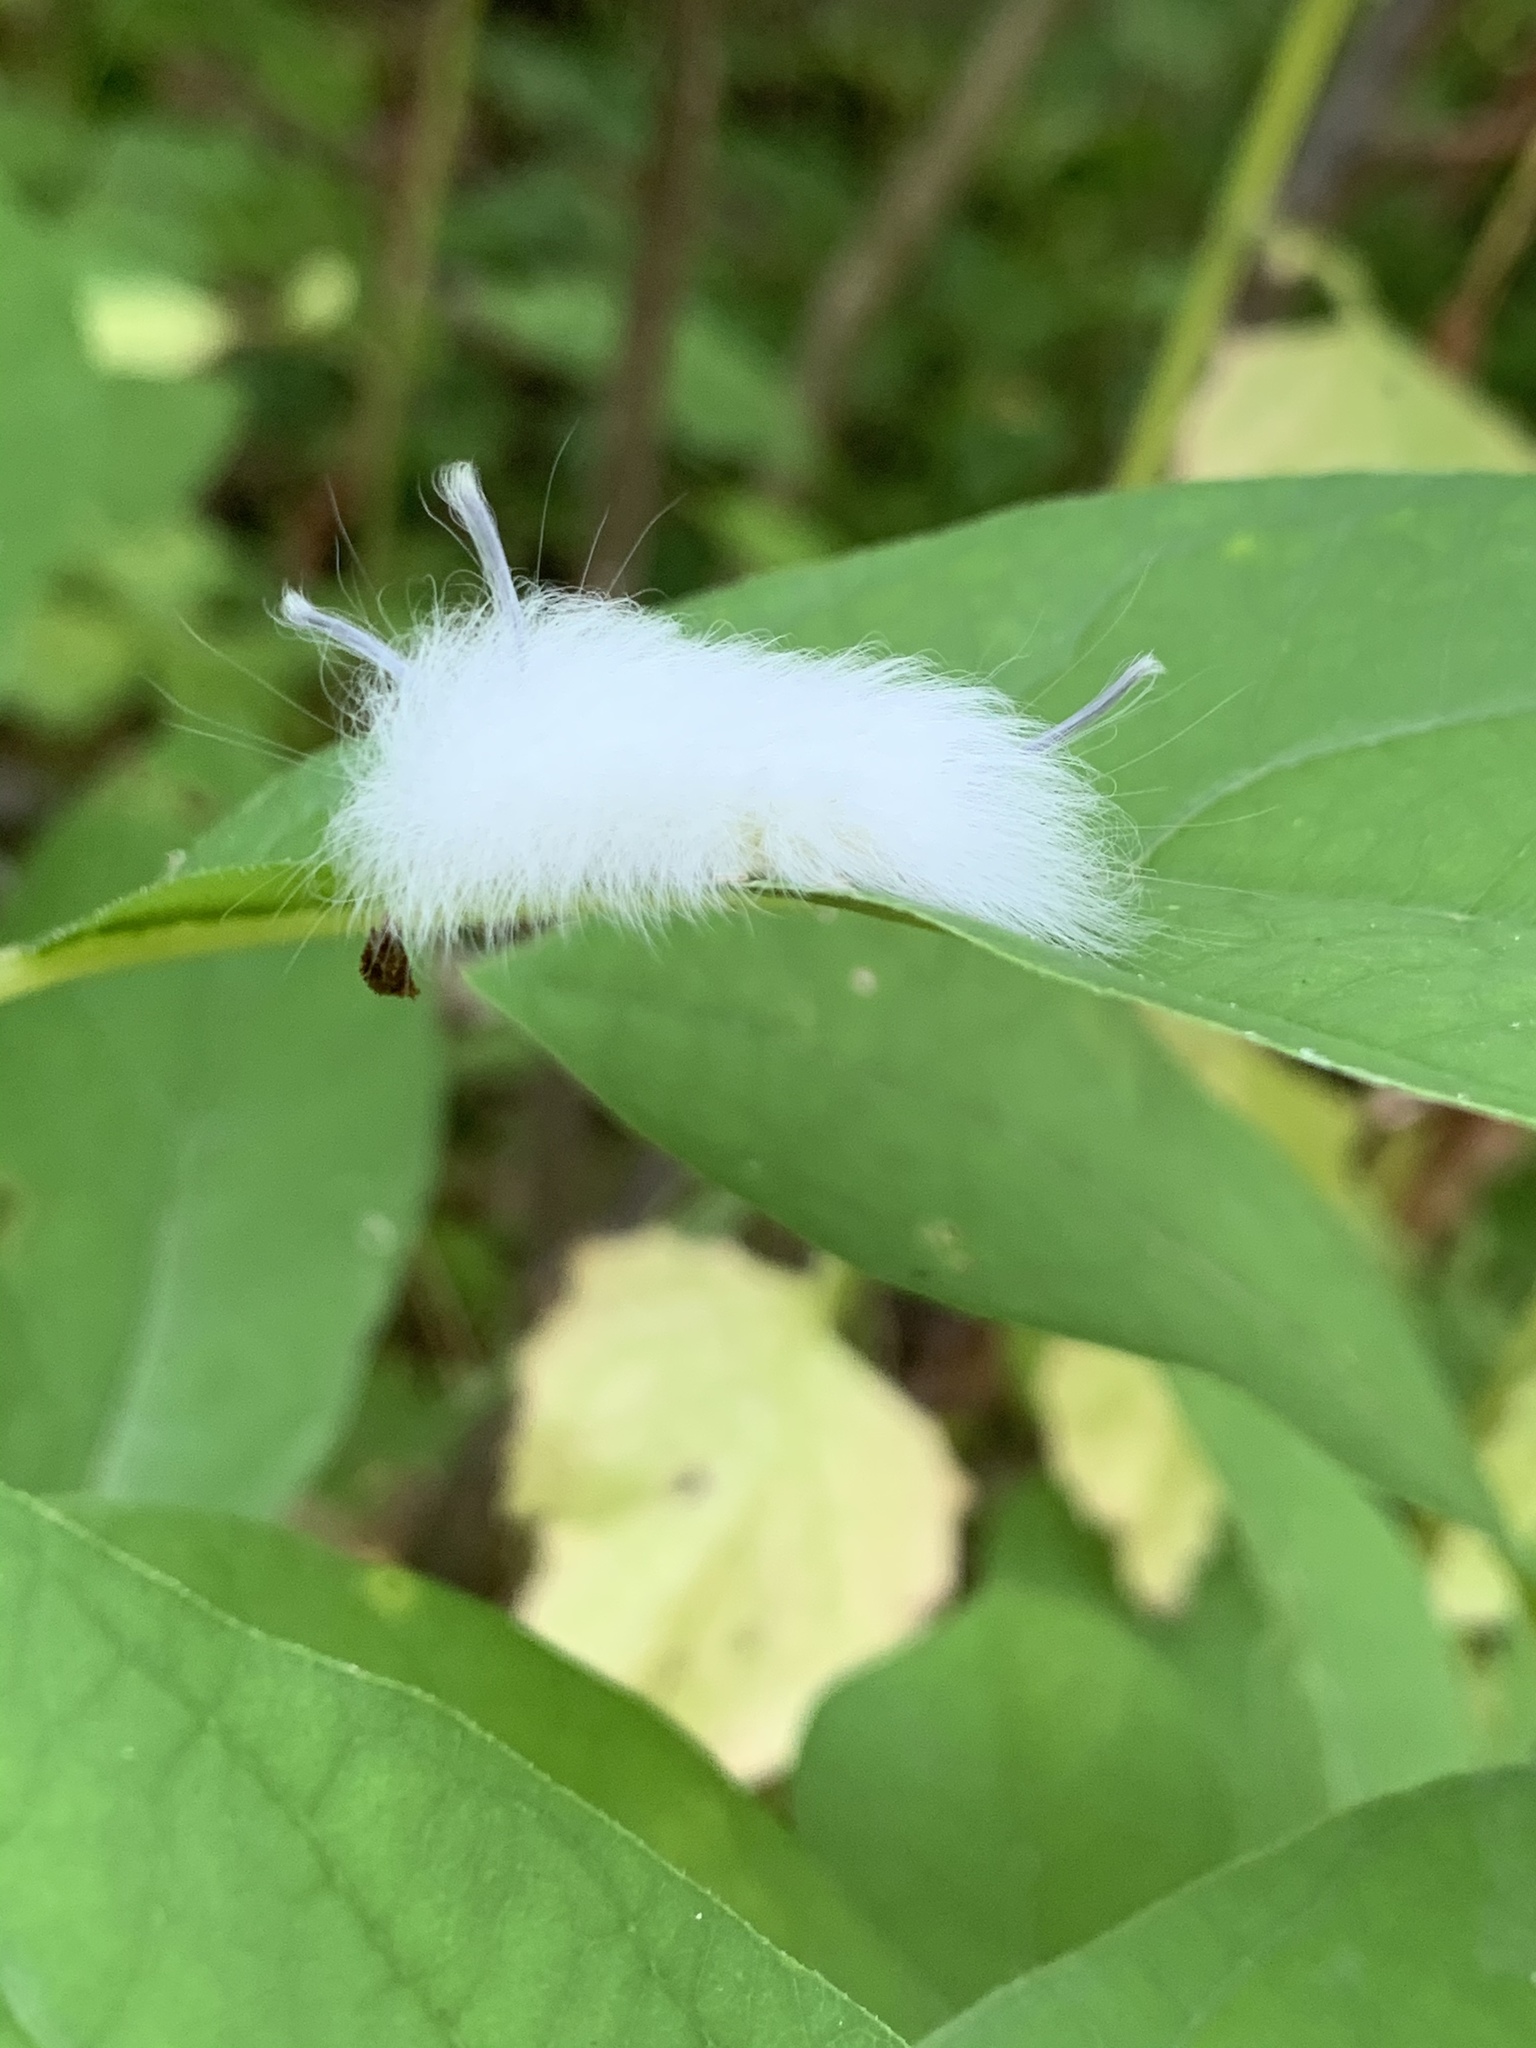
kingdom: Animalia
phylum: Arthropoda
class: Insecta
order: Lepidoptera
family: Apatelodidae
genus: Hygrochroa
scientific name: Hygrochroa Apatelodes torrefacta
